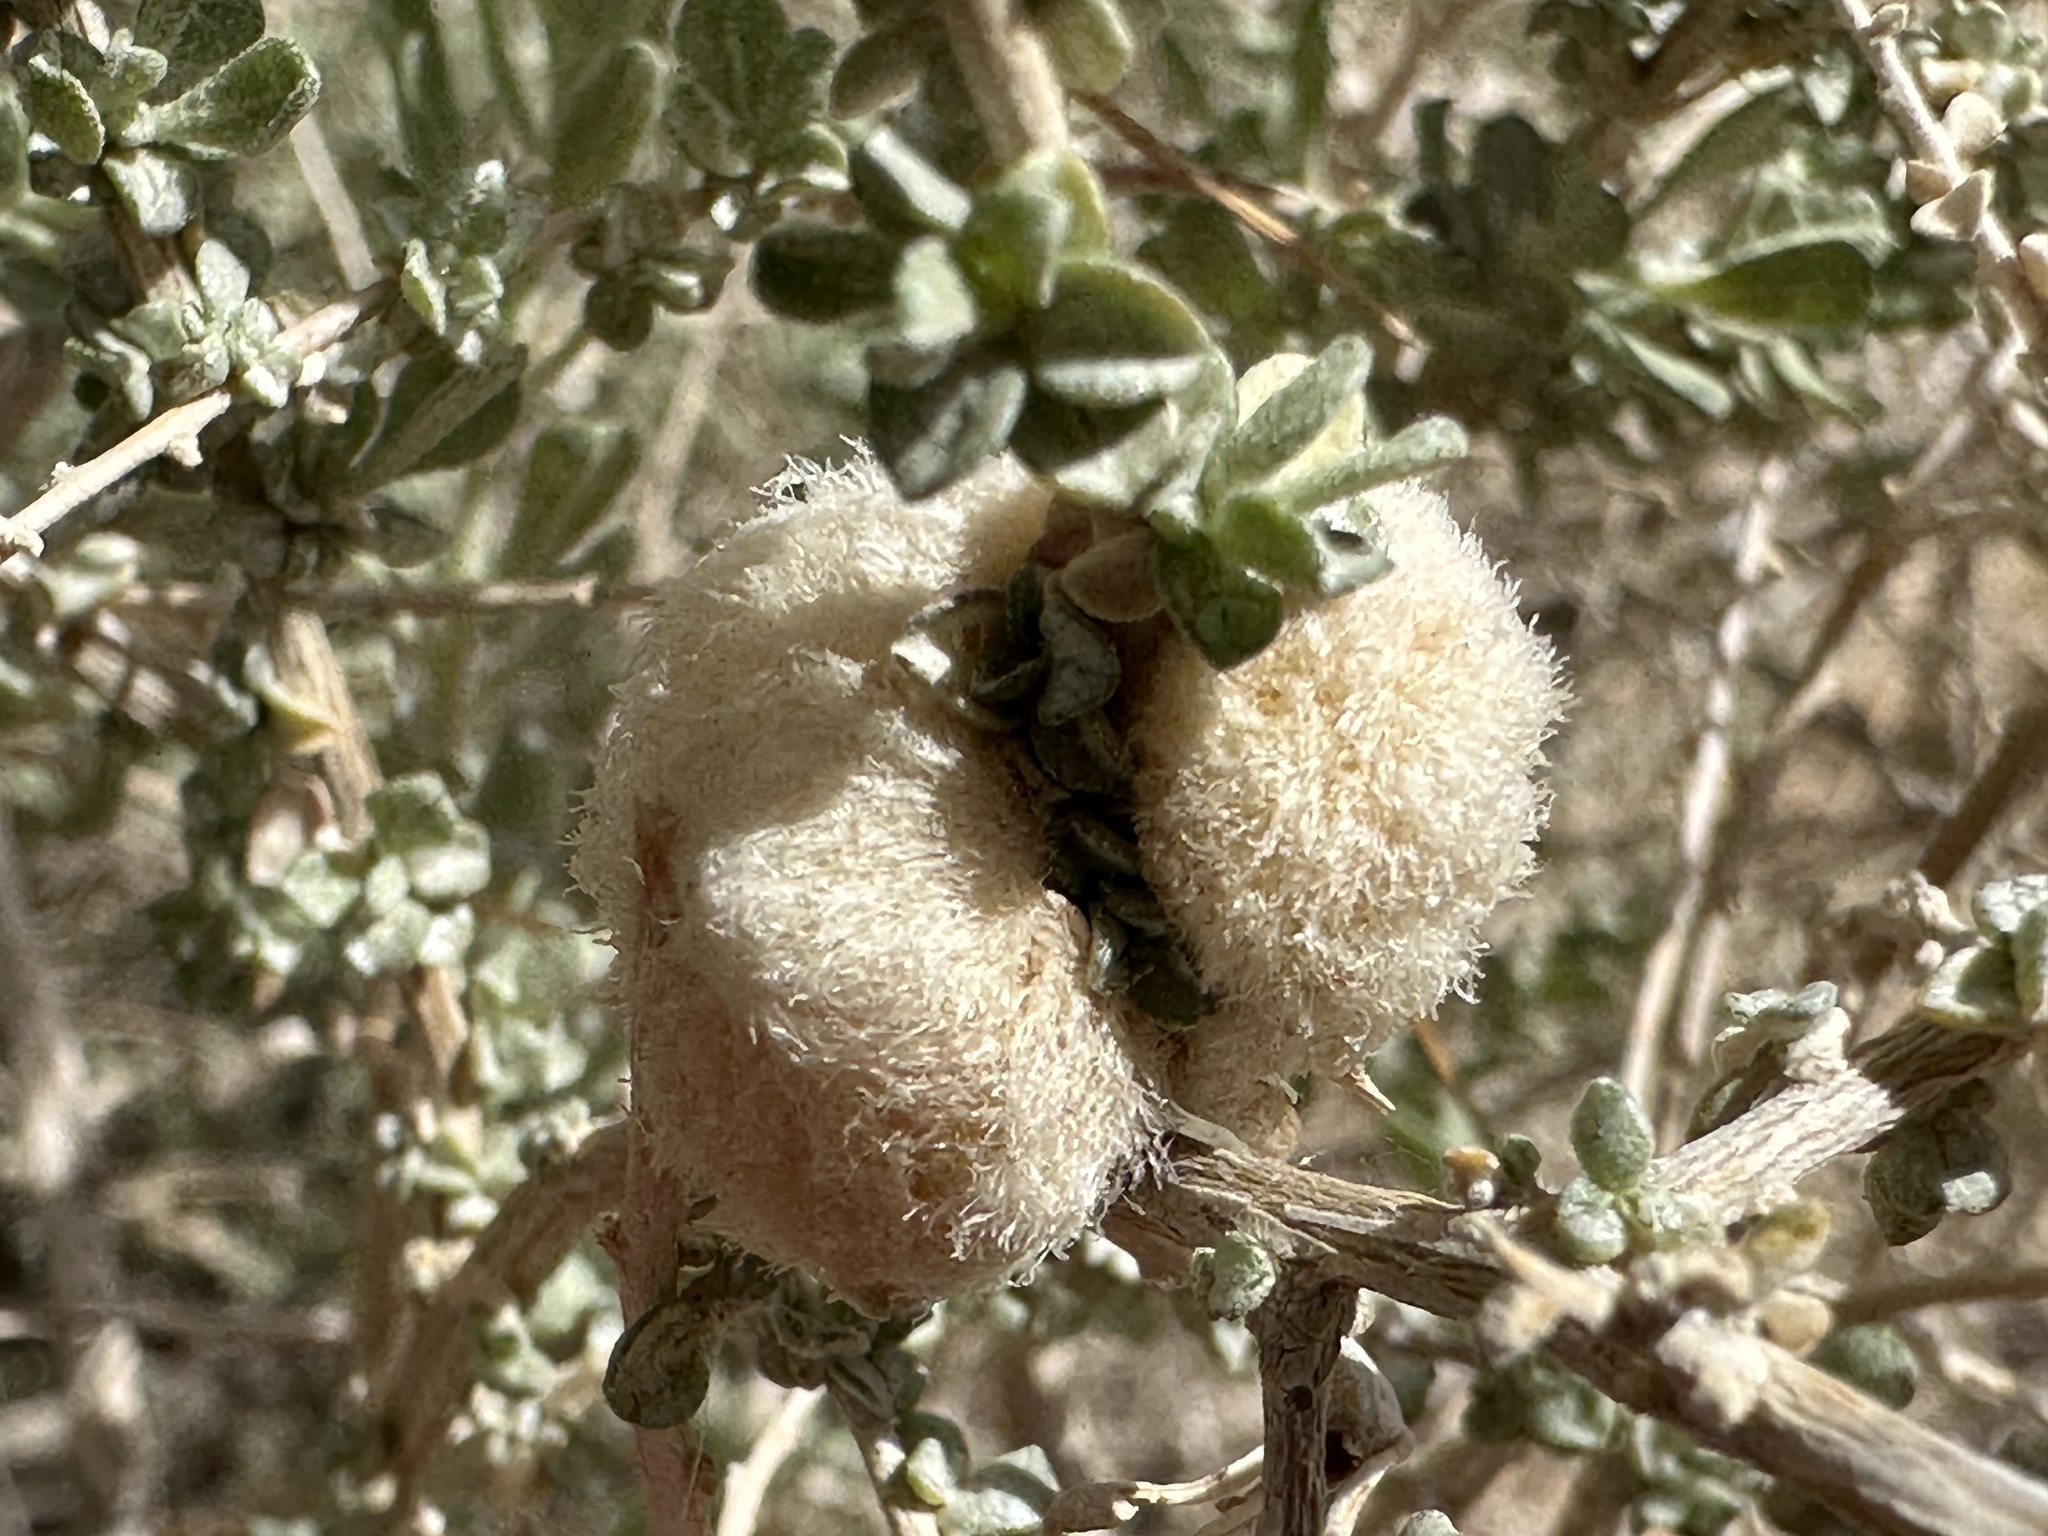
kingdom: Animalia
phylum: Arthropoda
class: Insecta
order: Diptera
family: Cecidomyiidae
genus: Asphondylia
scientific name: Asphondylia floccosa
